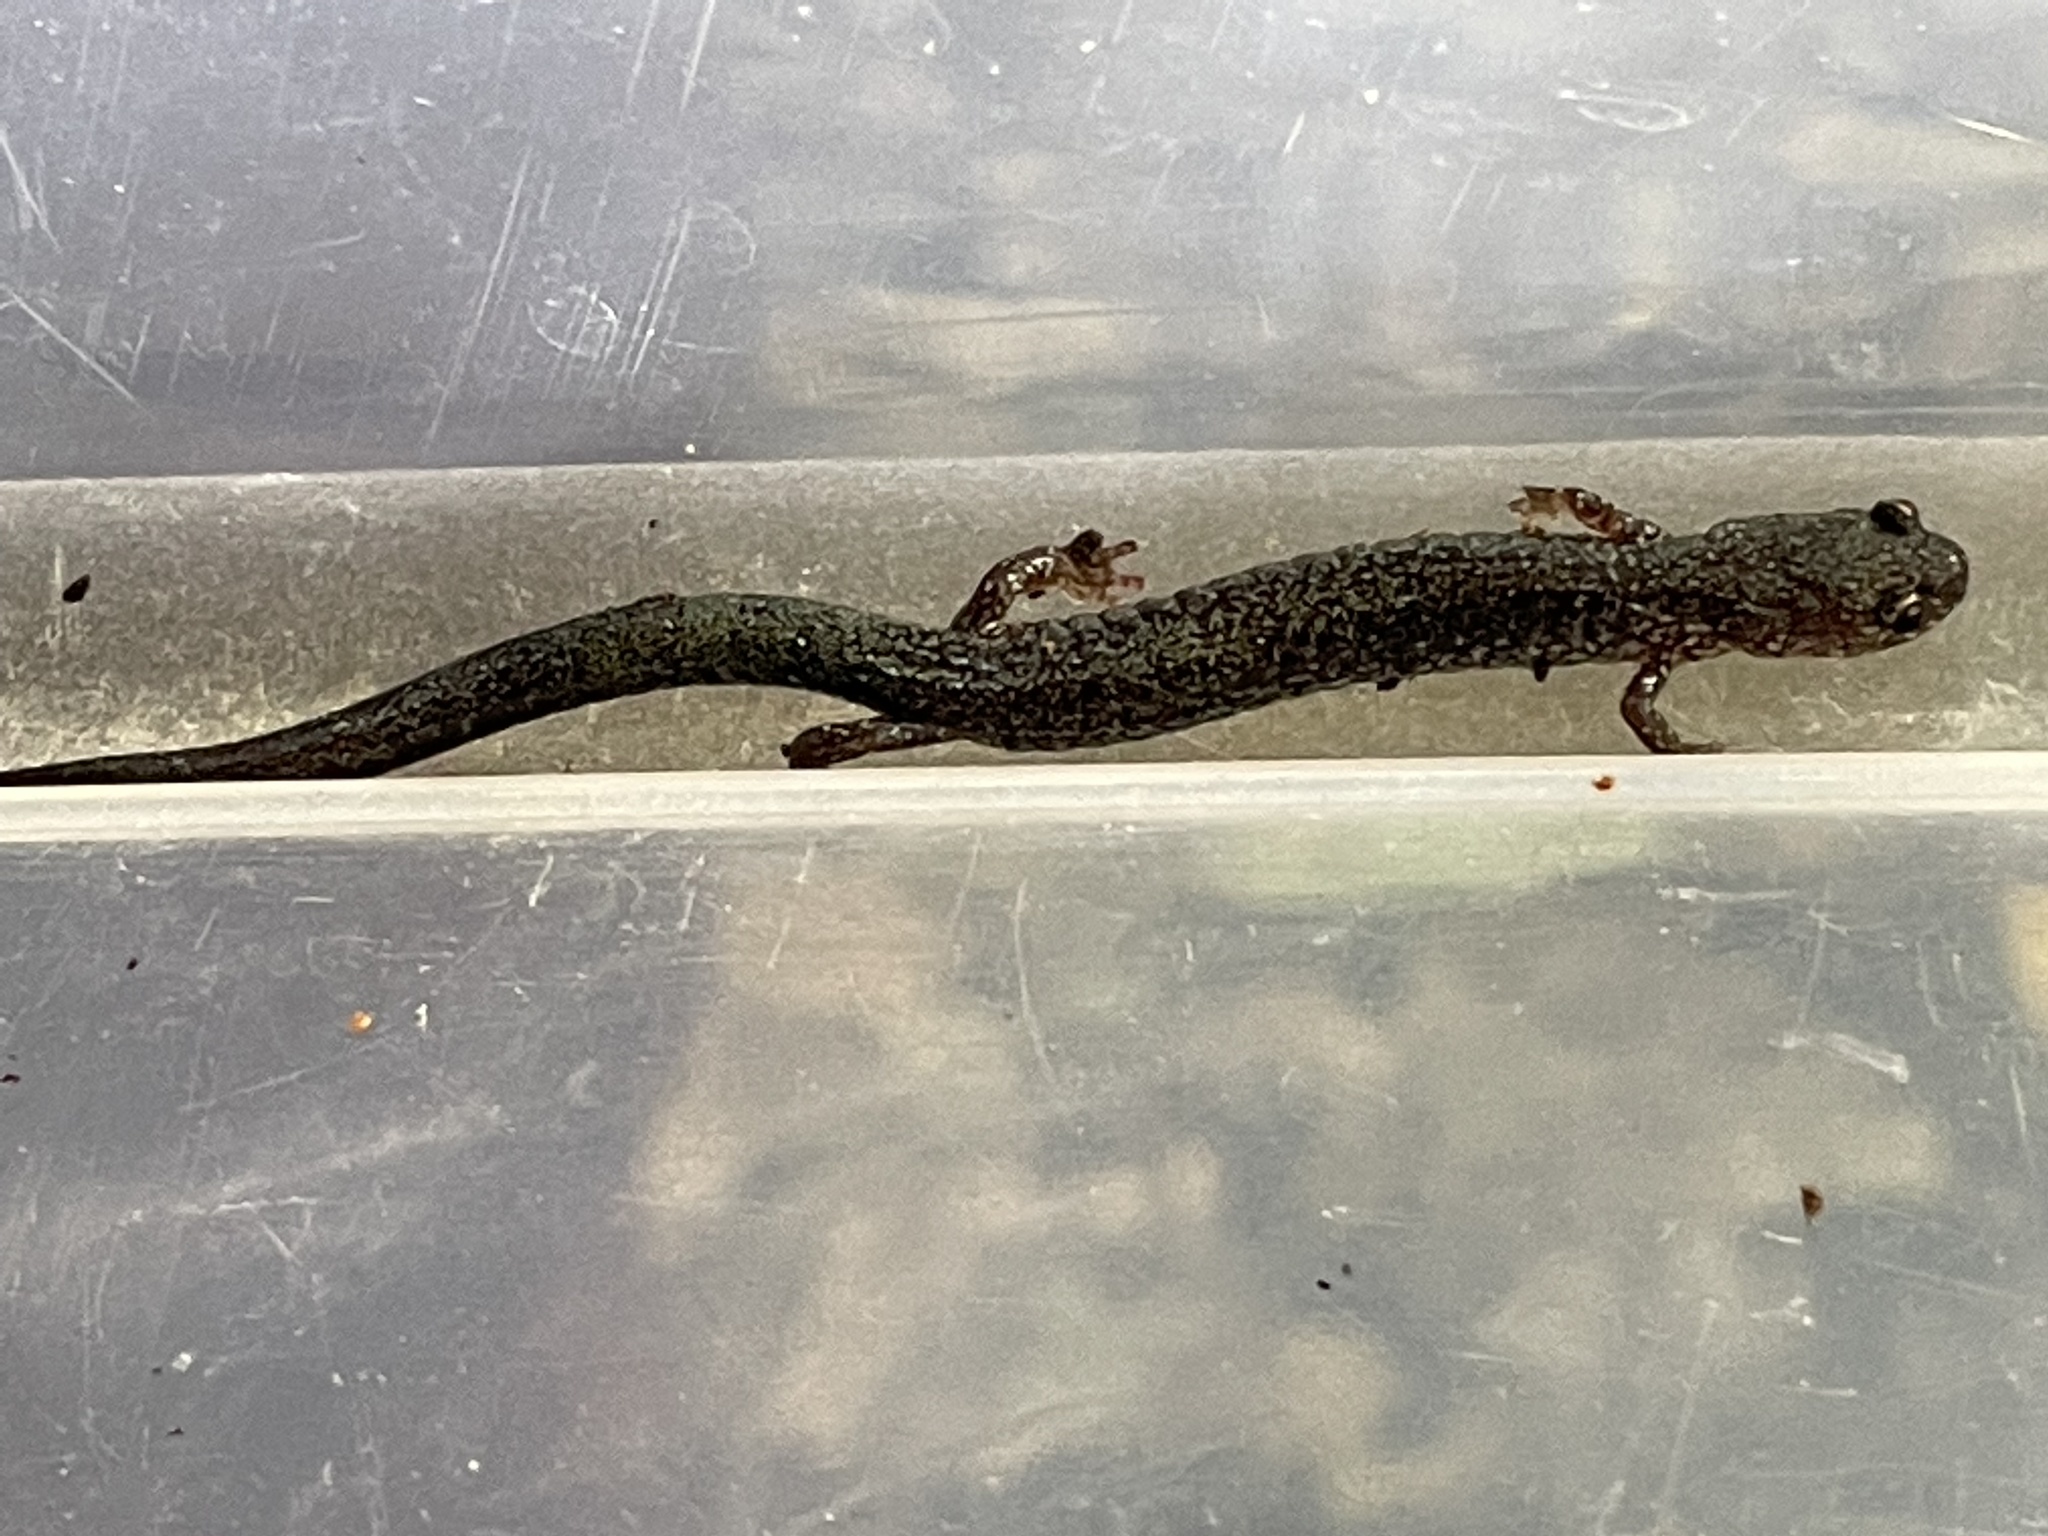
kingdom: Animalia
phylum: Chordata
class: Amphibia
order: Caudata
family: Plethodontidae
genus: Plethodon
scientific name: Plethodon cinereus
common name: Redback salamander
